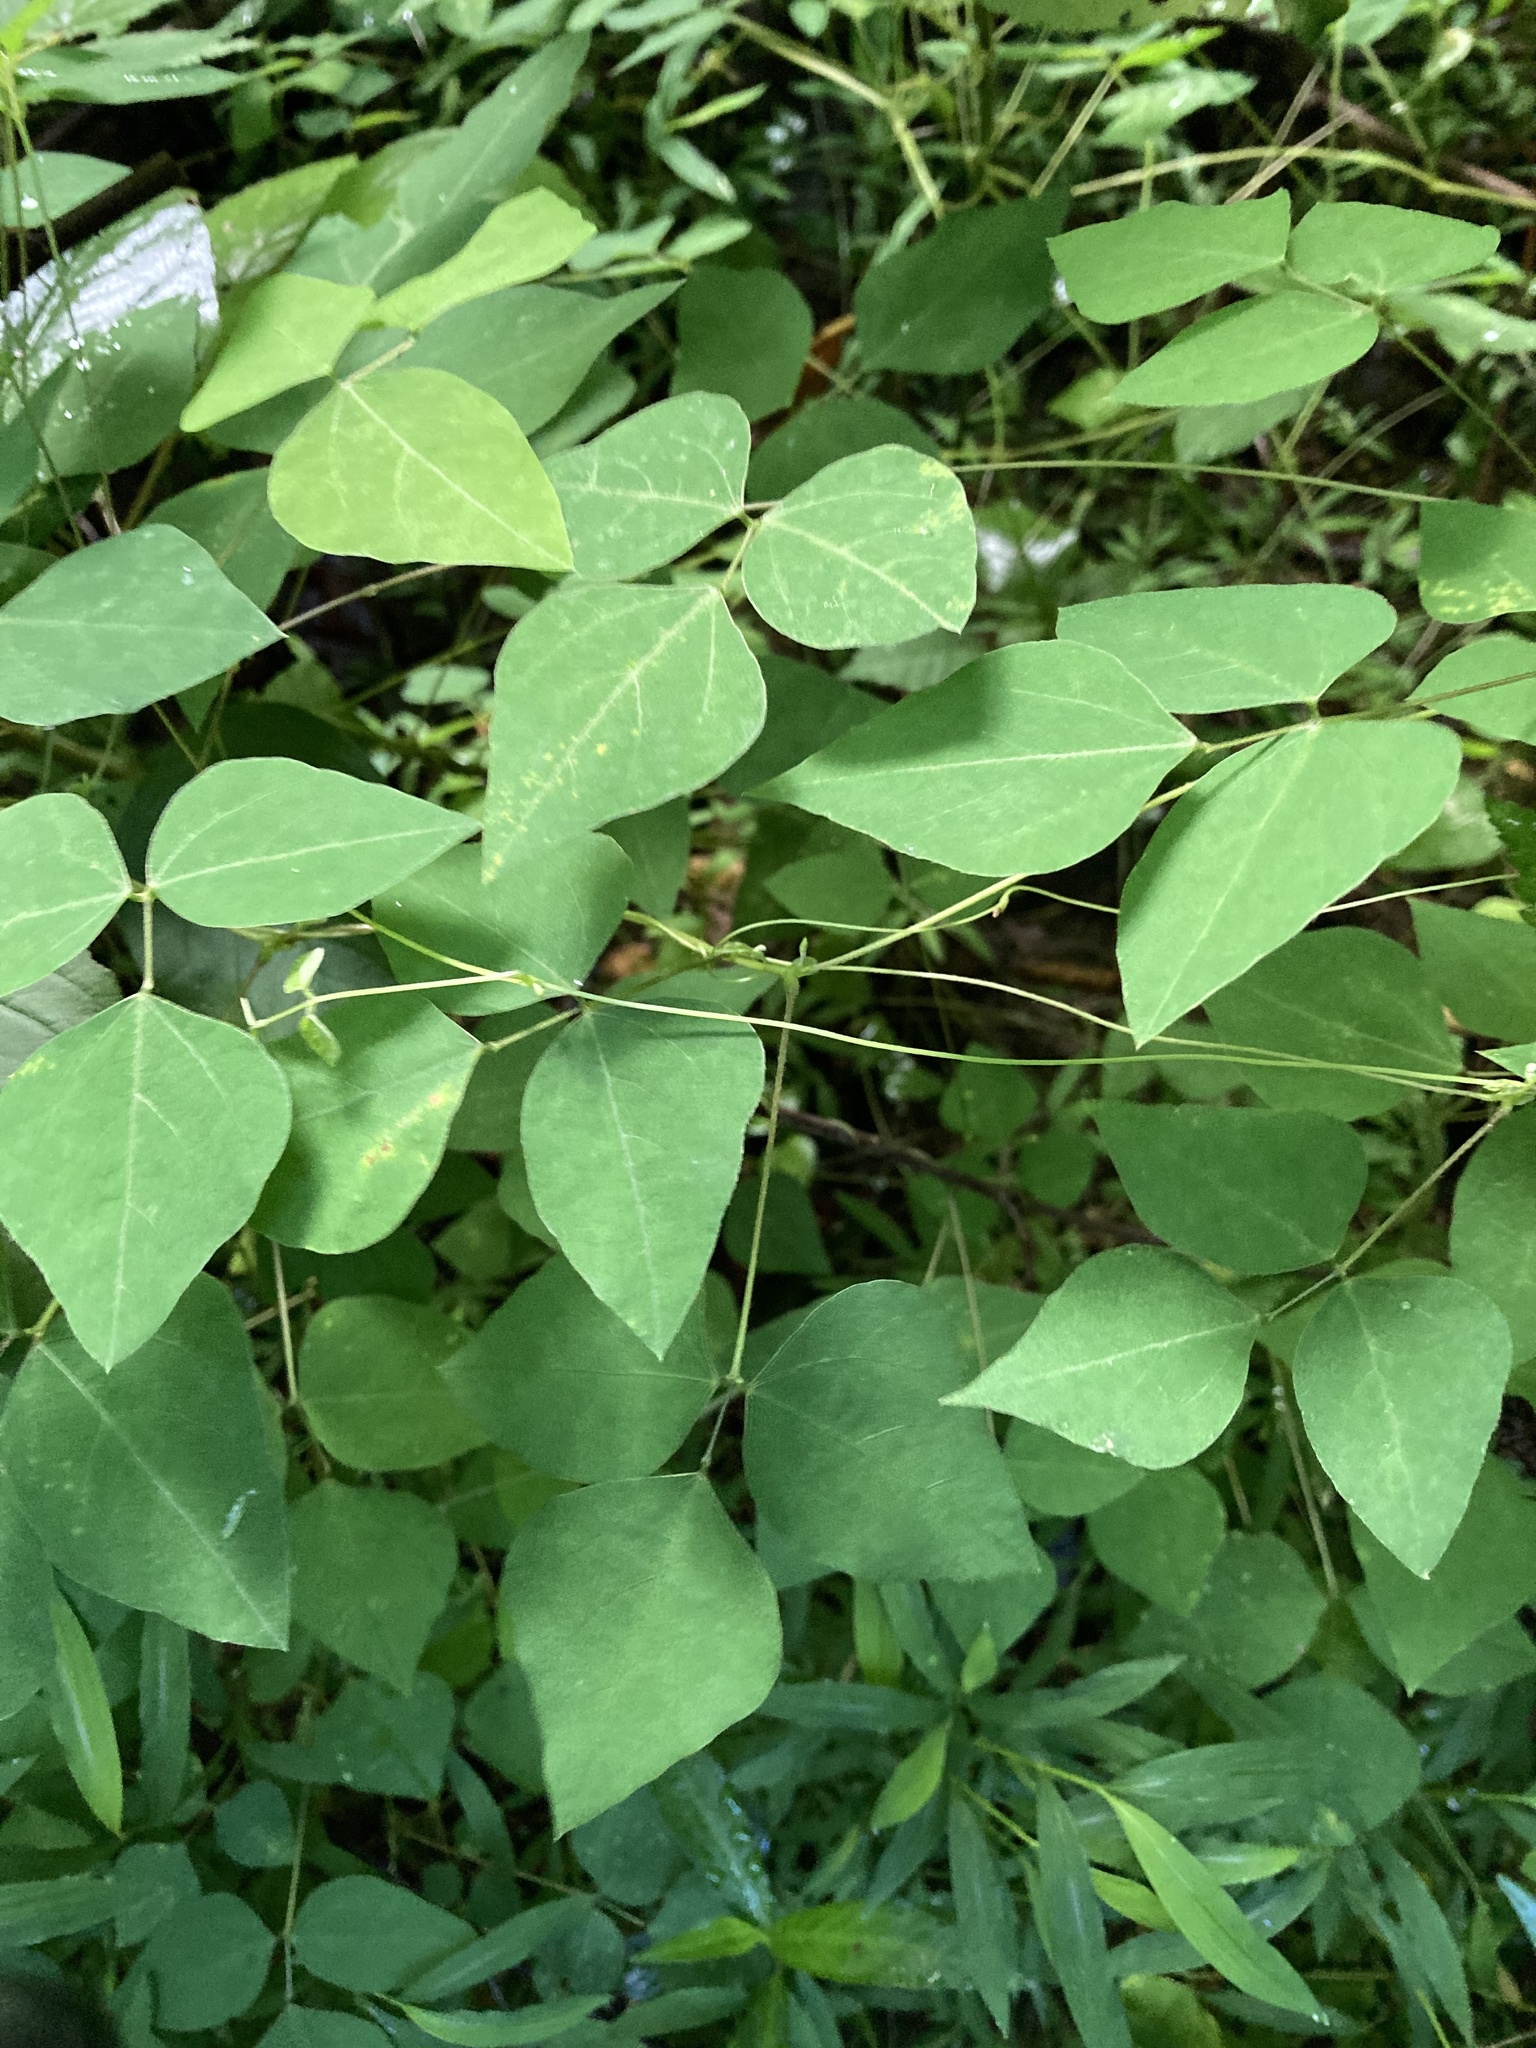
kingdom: Plantae
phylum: Tracheophyta
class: Magnoliopsida
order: Fabales
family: Fabaceae
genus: Amphicarpaea
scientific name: Amphicarpaea bracteata
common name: American hog peanut
